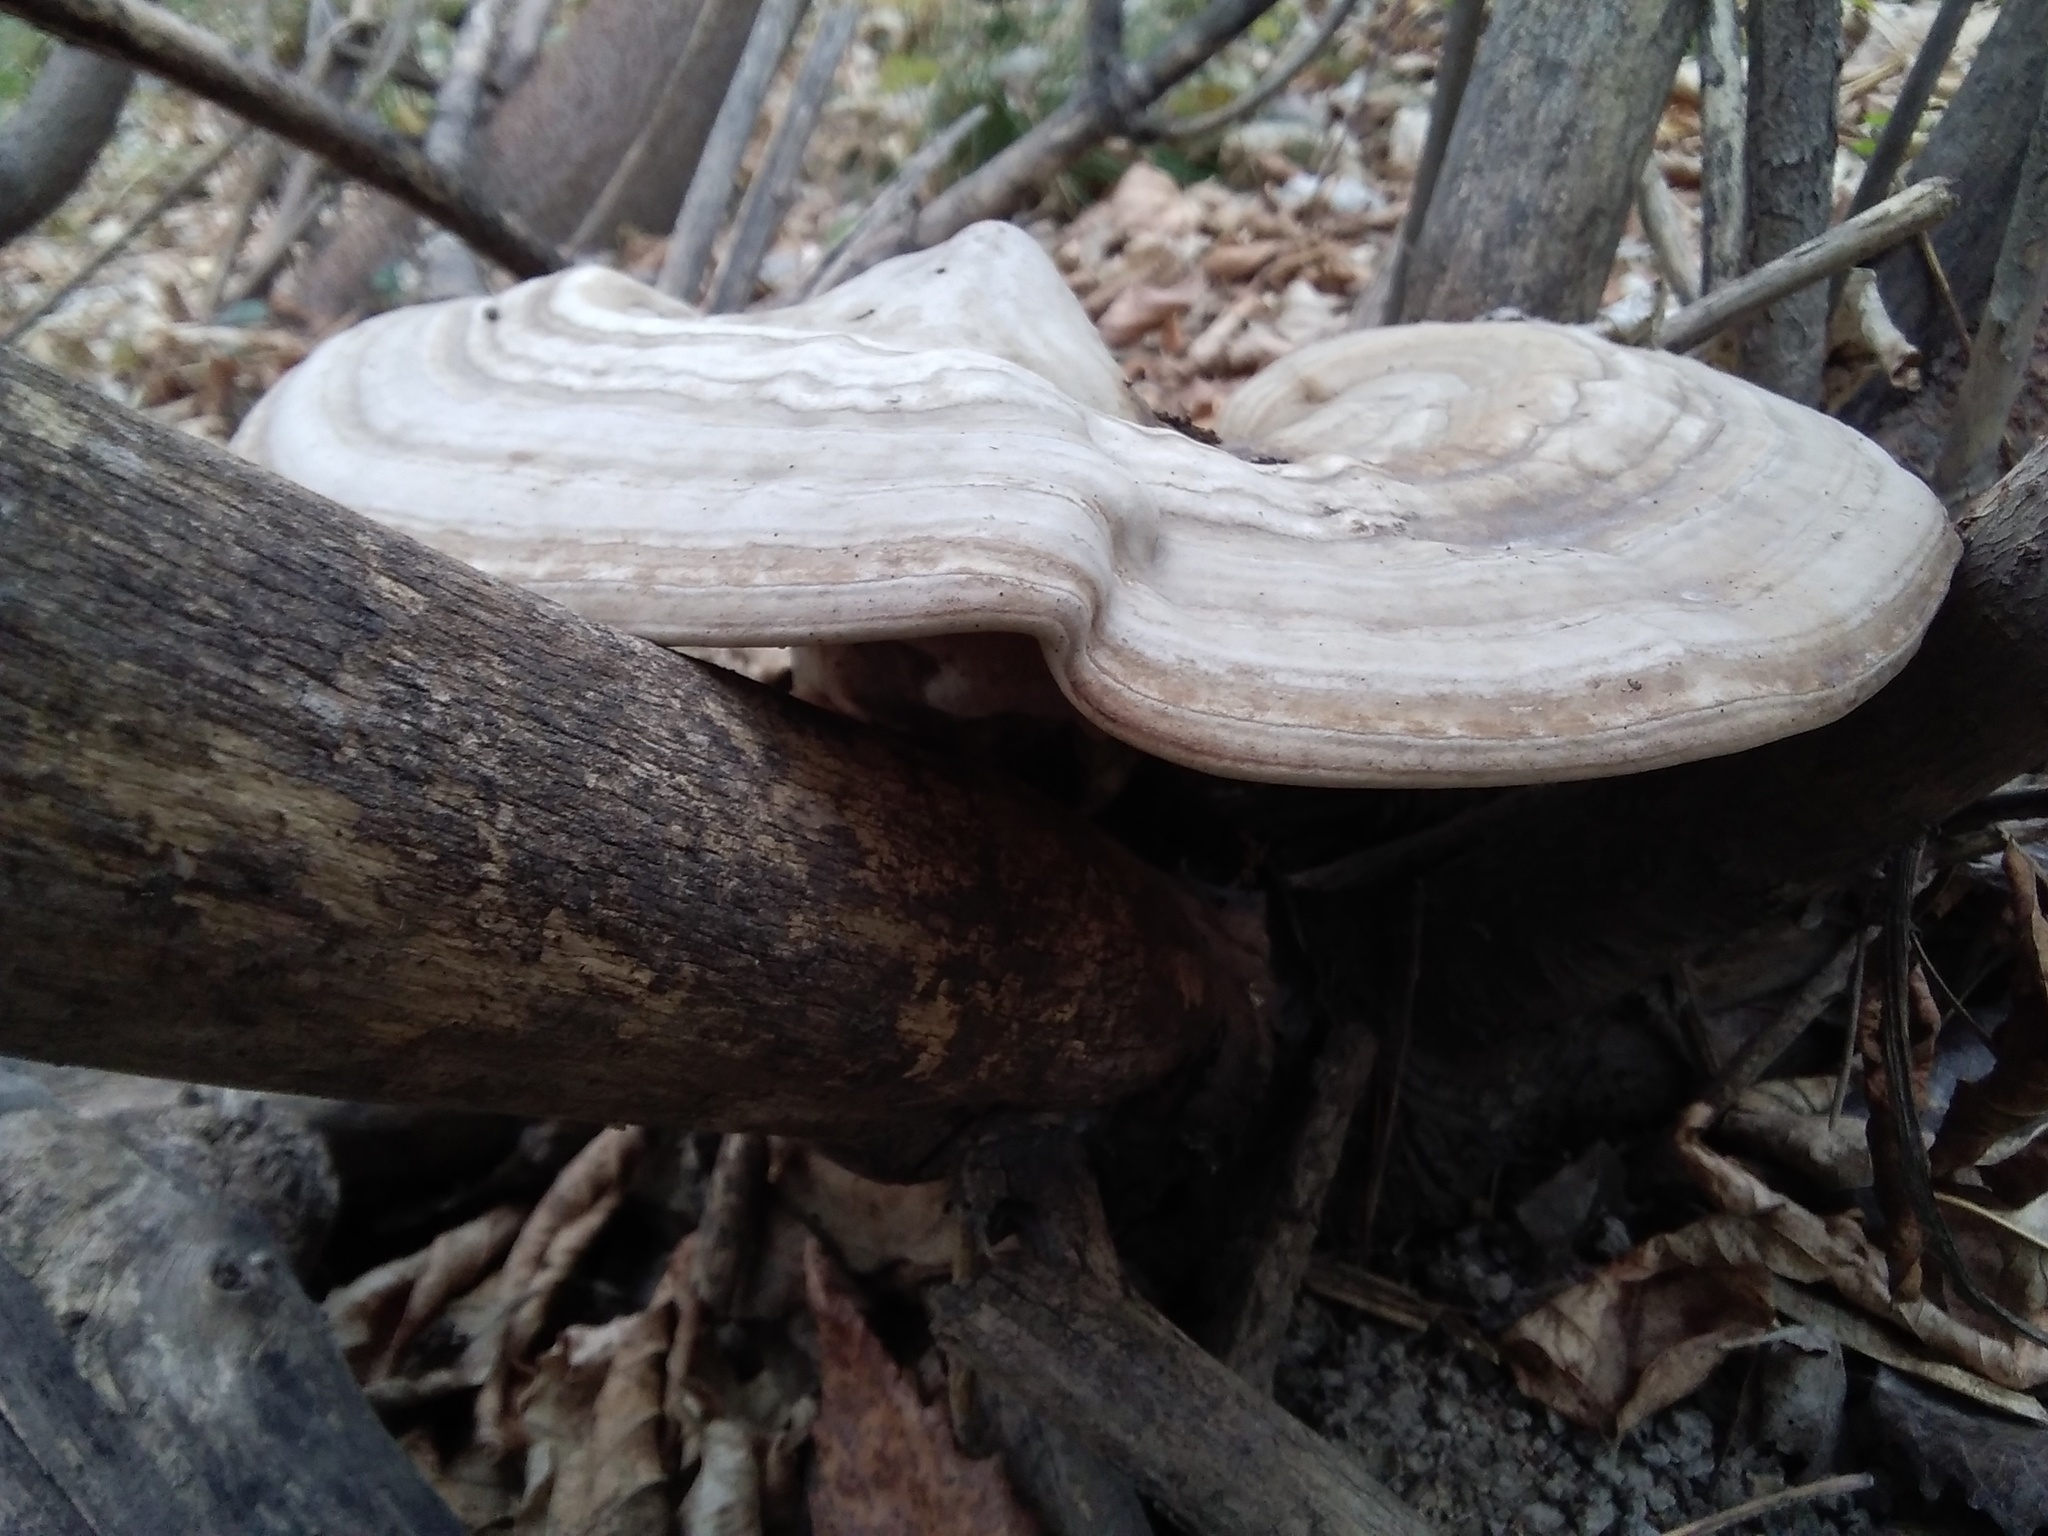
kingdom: Fungi
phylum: Basidiomycota
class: Agaricomycetes
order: Polyporales
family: Polyporaceae
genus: Ganoderma
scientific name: Ganoderma applanatum
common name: Artist's bracket
